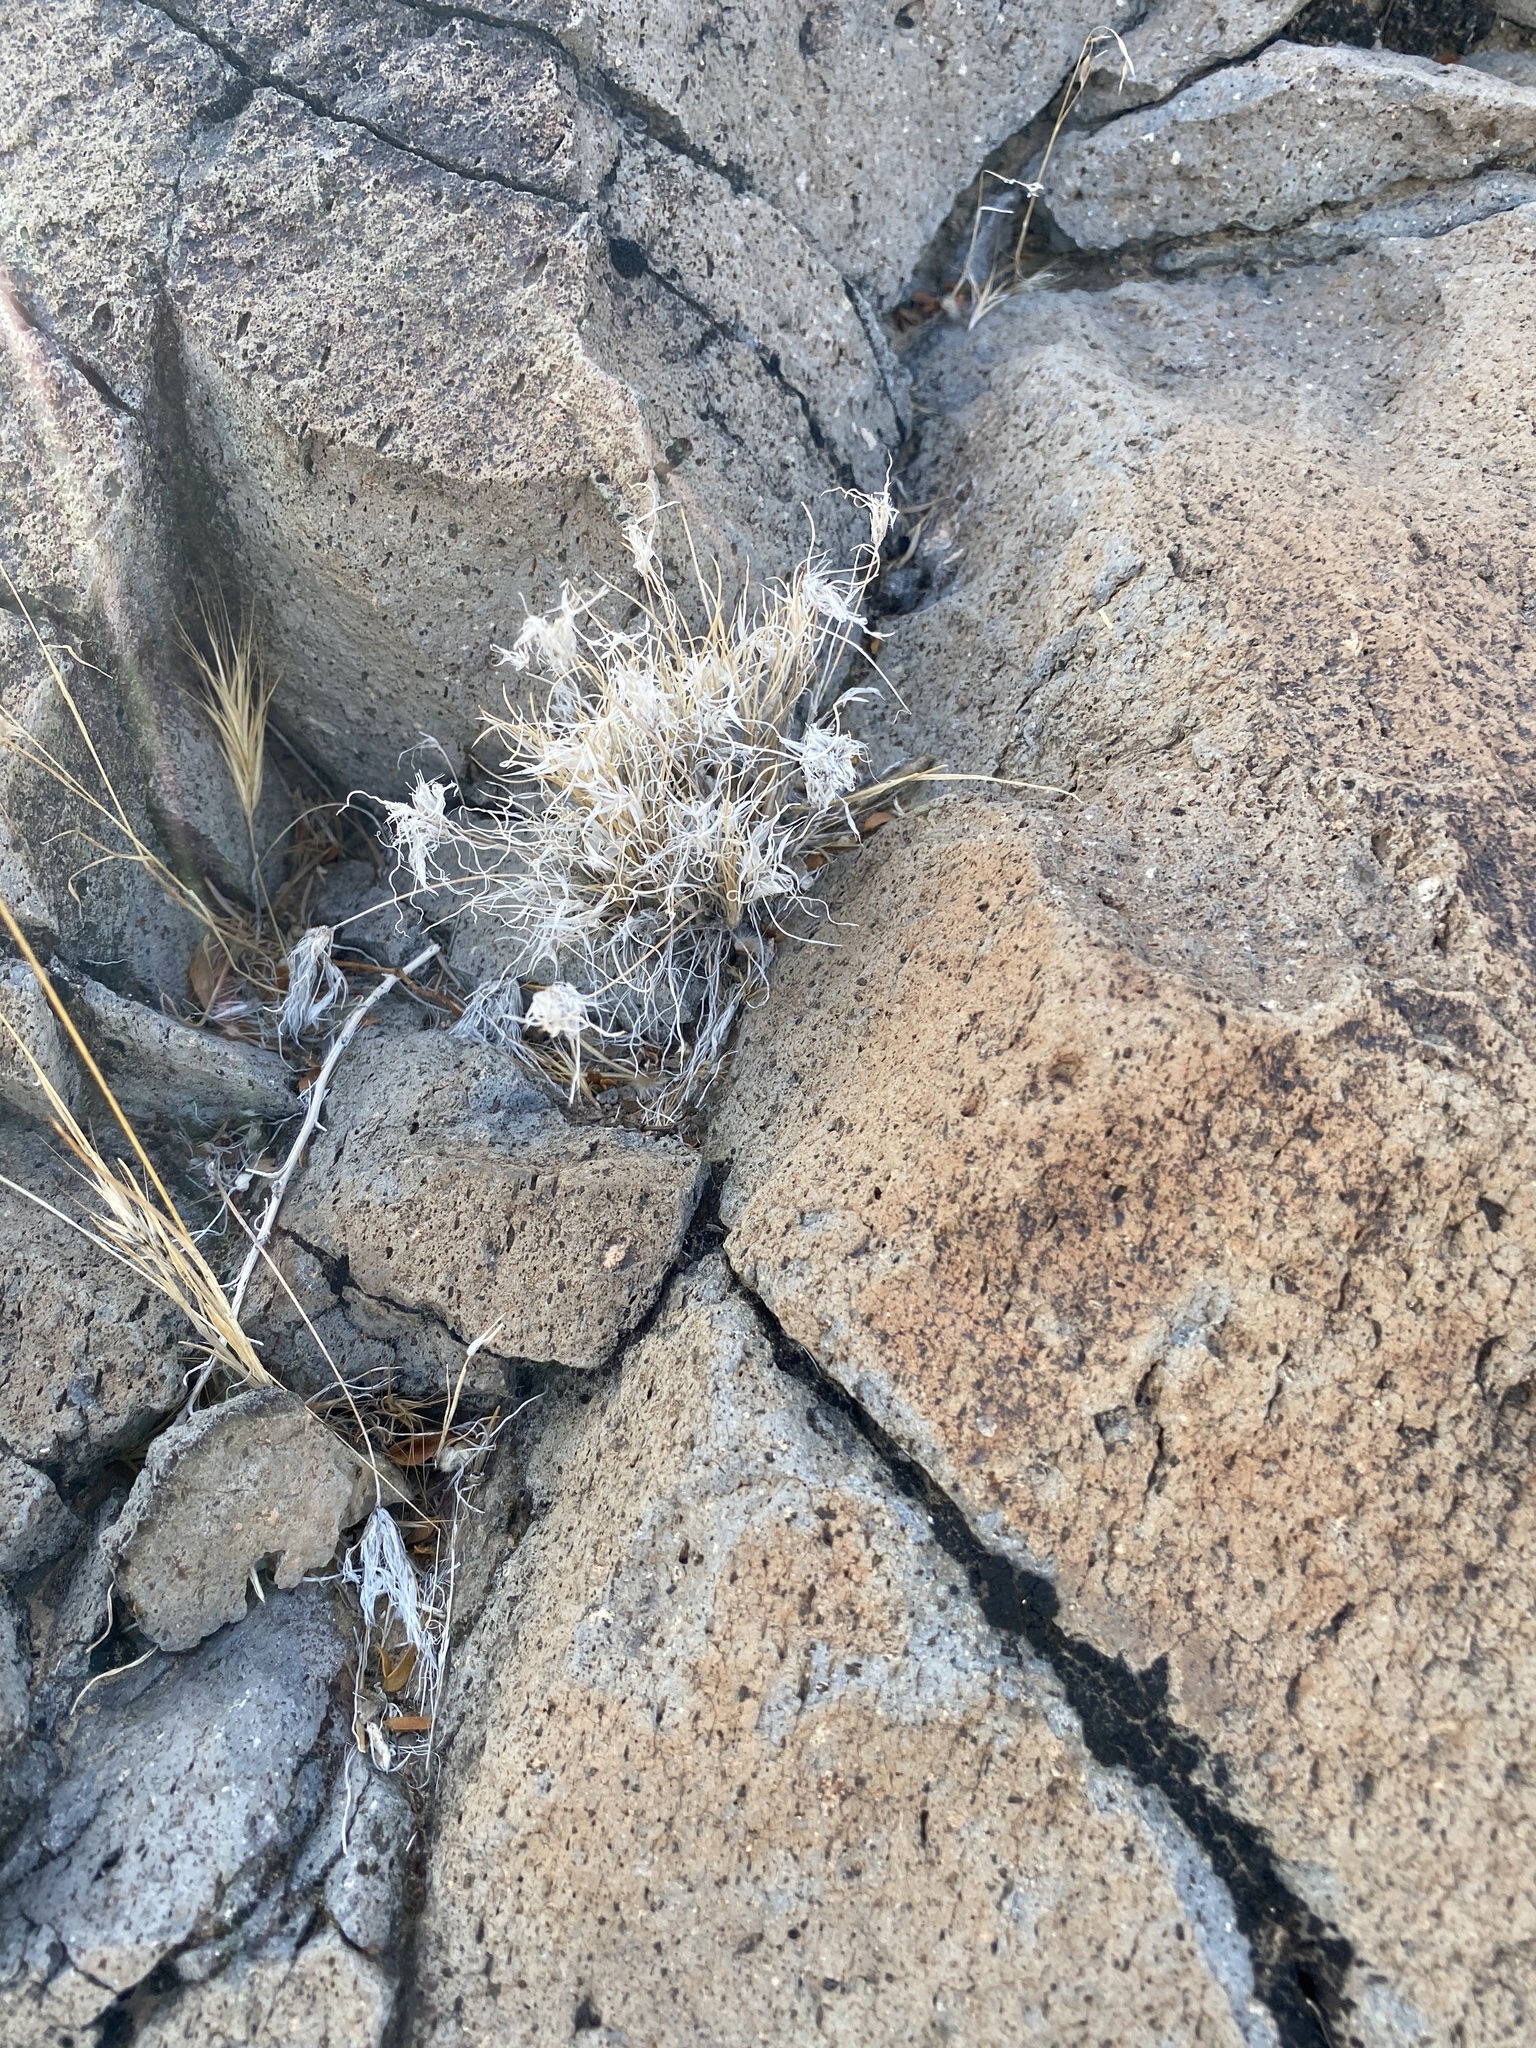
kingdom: Plantae
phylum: Tracheophyta
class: Liliopsida
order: Poales
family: Poaceae
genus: Dasyochloa
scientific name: Dasyochloa pulchella
